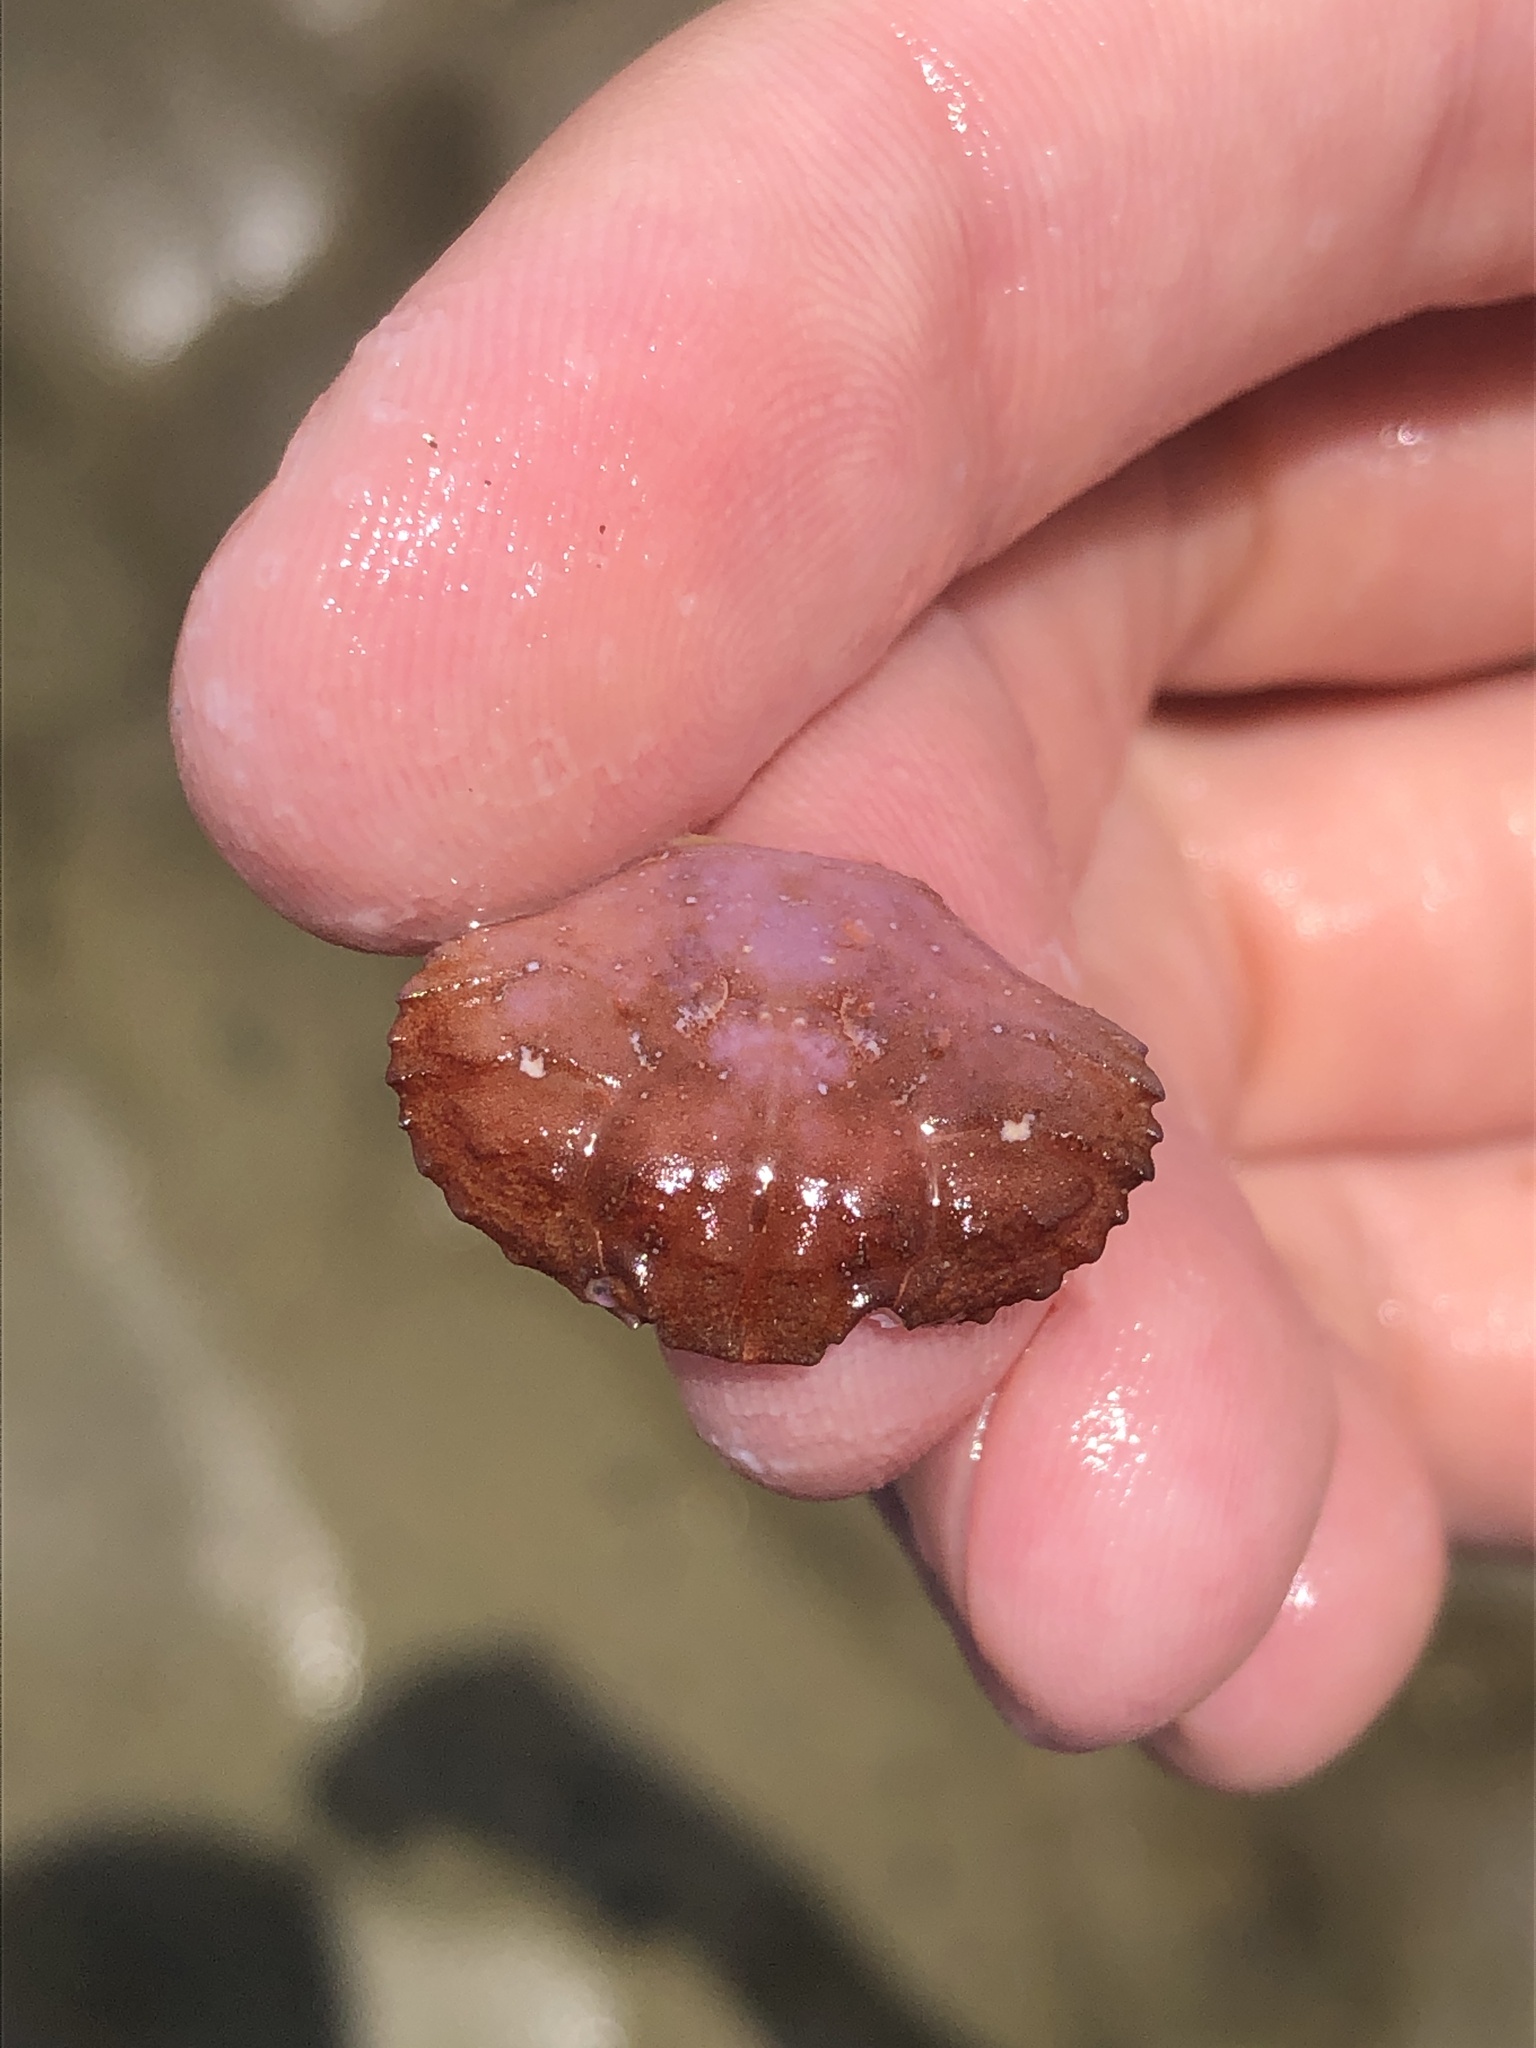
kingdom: Animalia
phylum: Arthropoda
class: Malacostraca
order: Decapoda
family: Xanthidae
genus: Cycloxanthops
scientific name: Cycloxanthops novemdentatus
